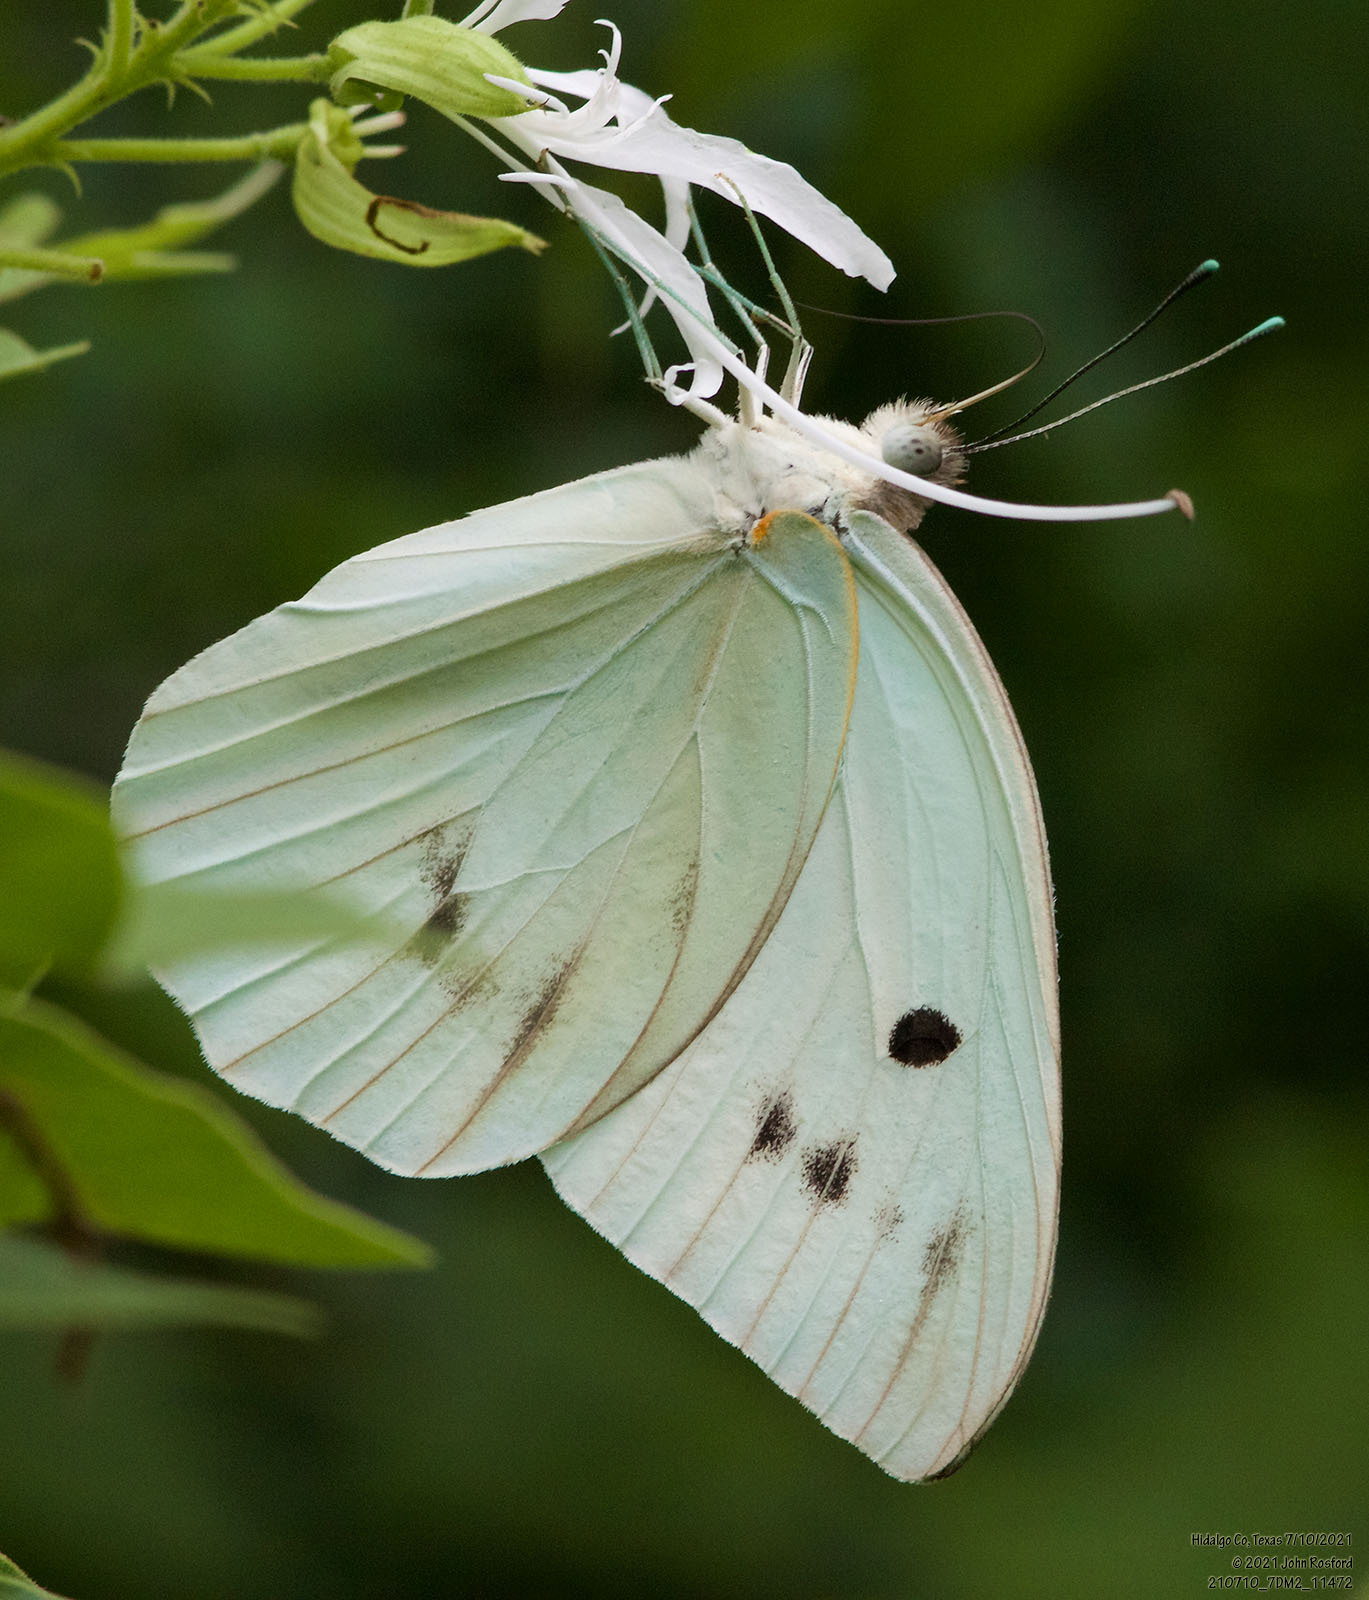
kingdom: Animalia
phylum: Arthropoda
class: Insecta
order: Lepidoptera
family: Pieridae
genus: Ganyra
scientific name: Ganyra josephina
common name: Giant white
